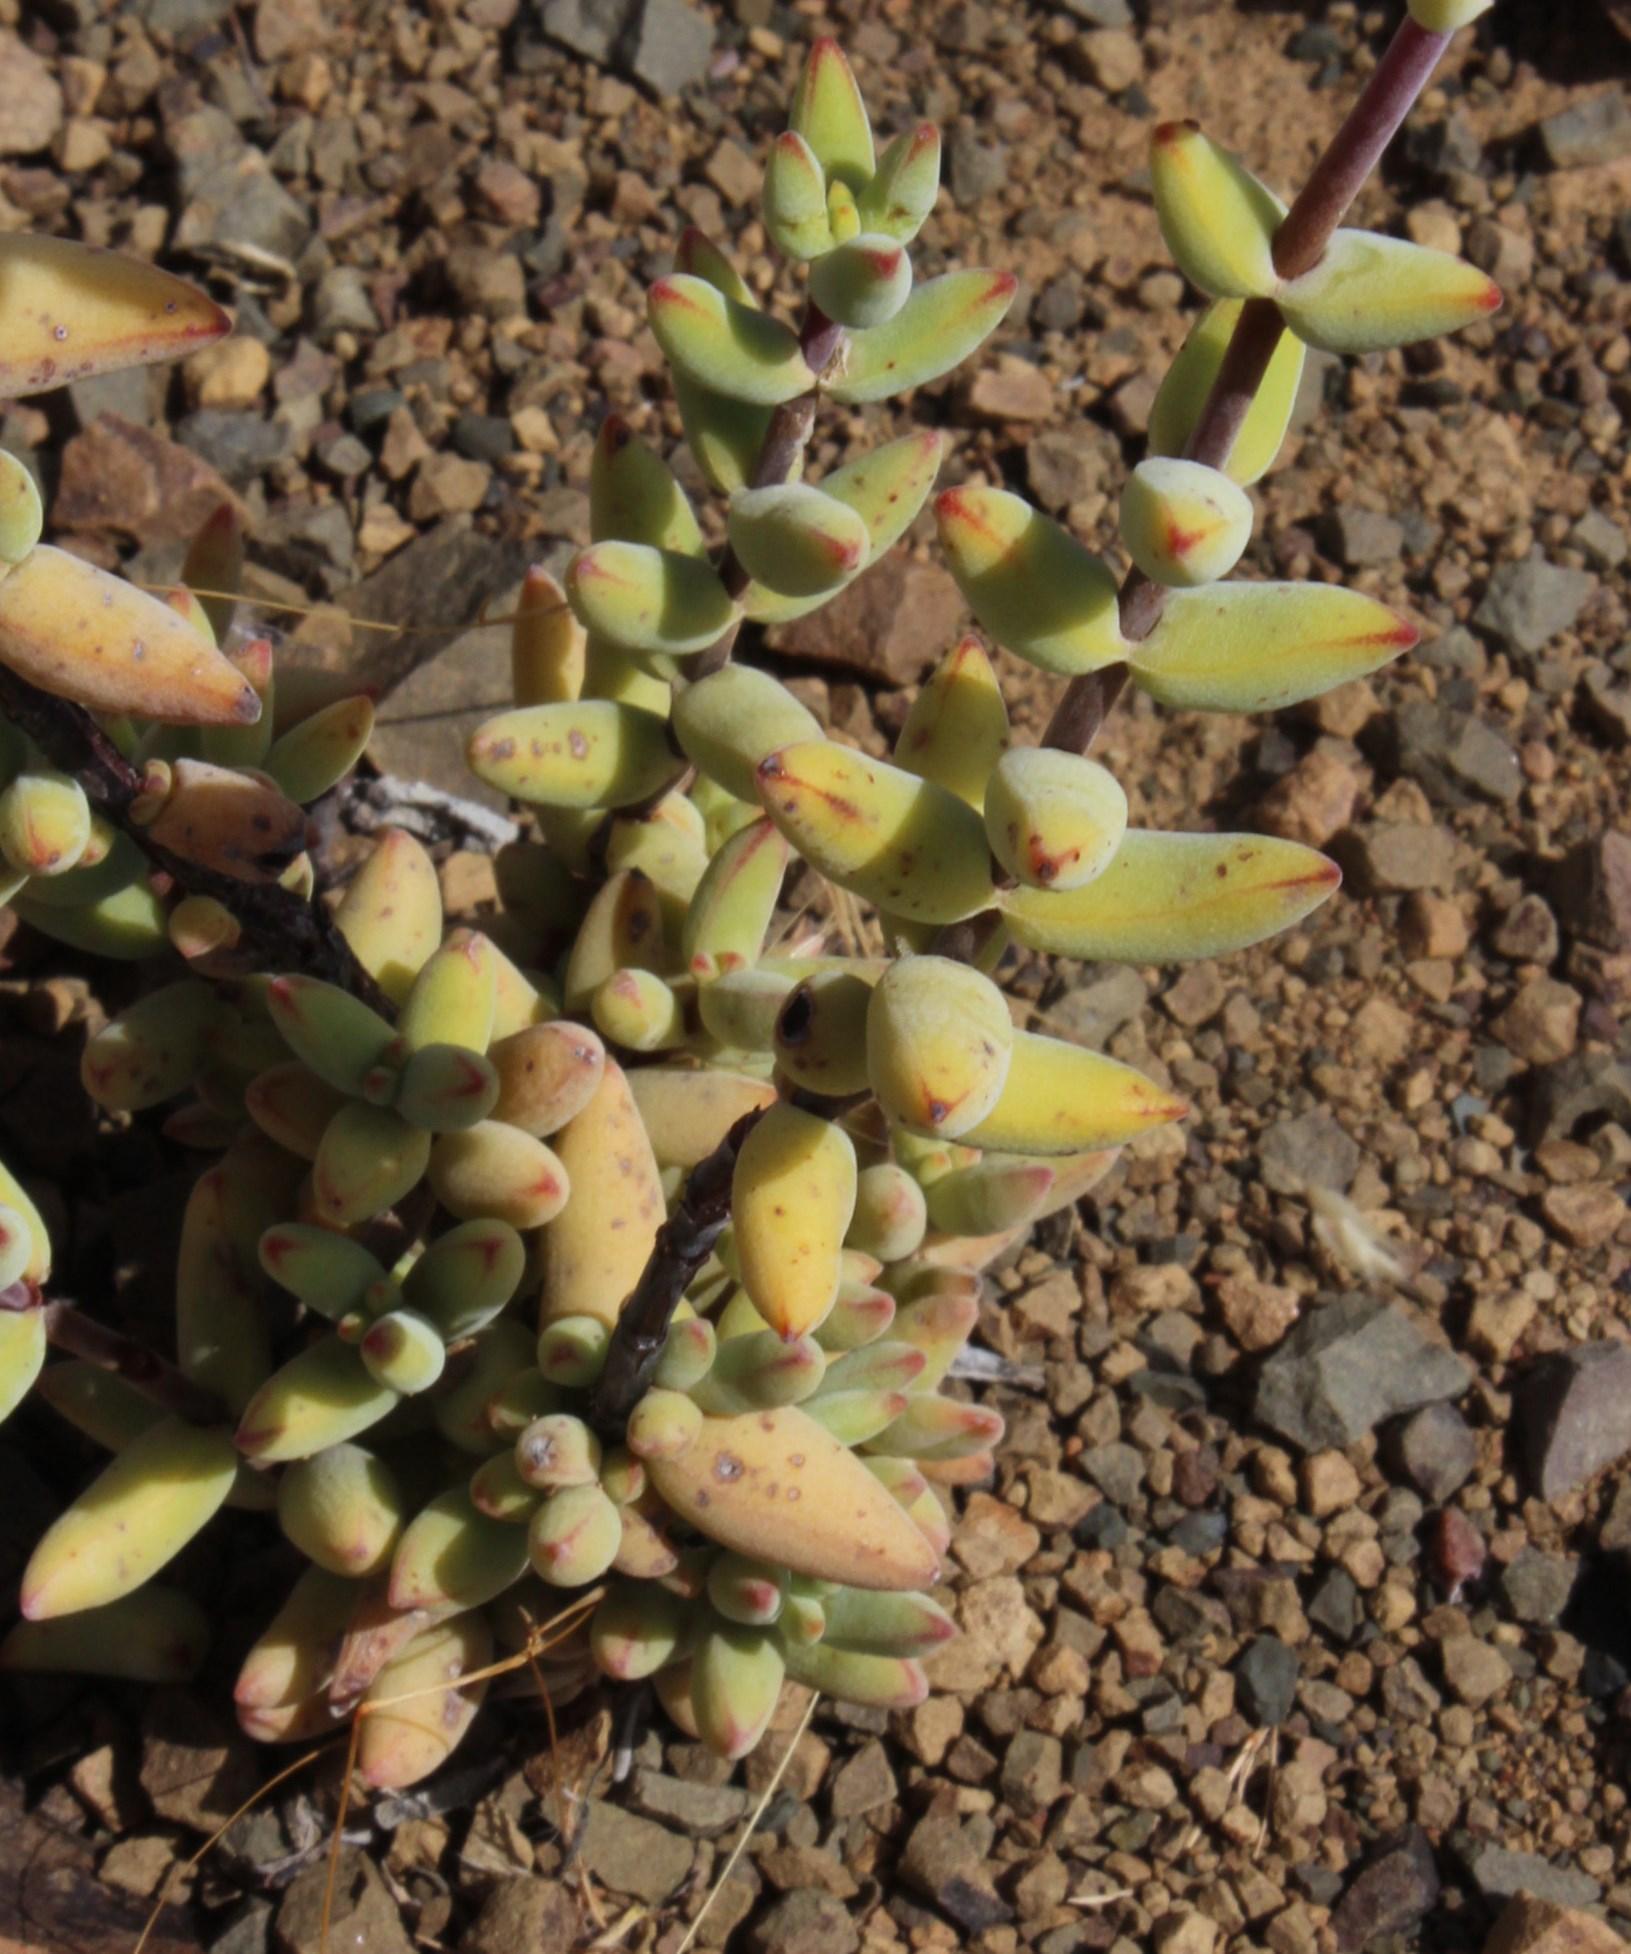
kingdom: Plantae
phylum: Tracheophyta
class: Magnoliopsida
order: Saxifragales
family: Crassulaceae
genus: Crassula
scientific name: Crassula subaphylla
